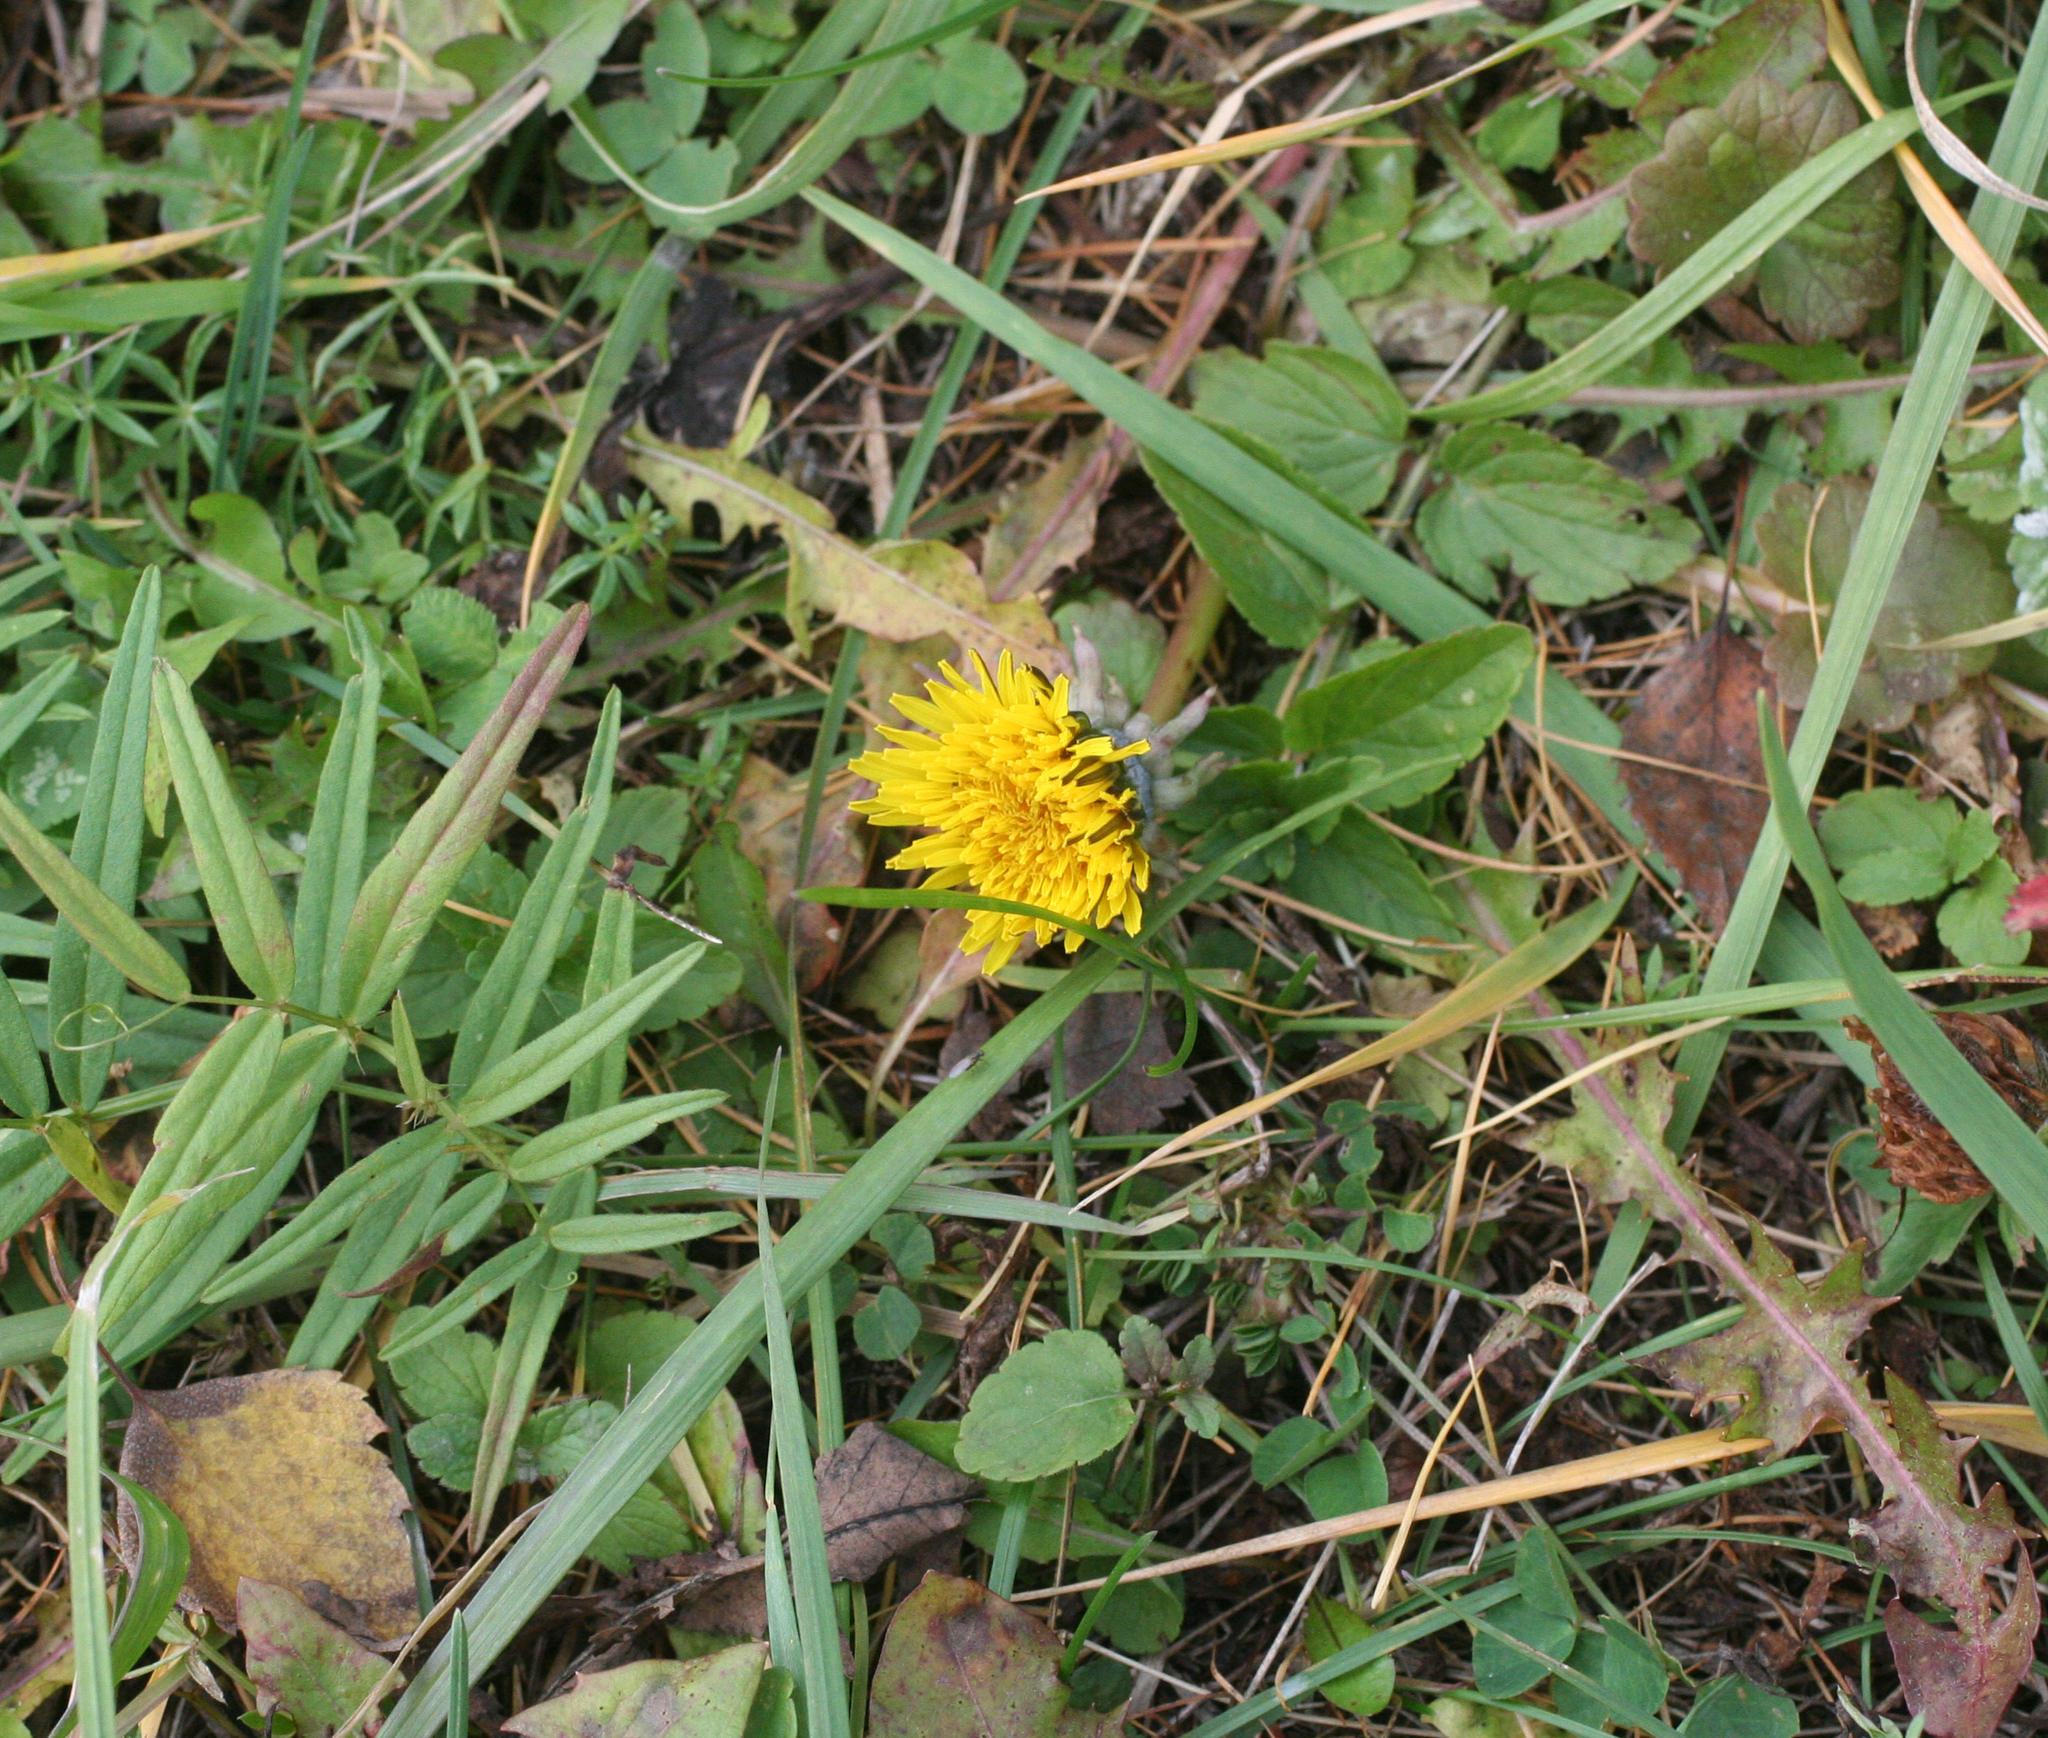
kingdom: Plantae
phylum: Tracheophyta
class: Magnoliopsida
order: Asterales
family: Asteraceae
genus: Taraxacum
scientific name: Taraxacum officinale
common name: Common dandelion
